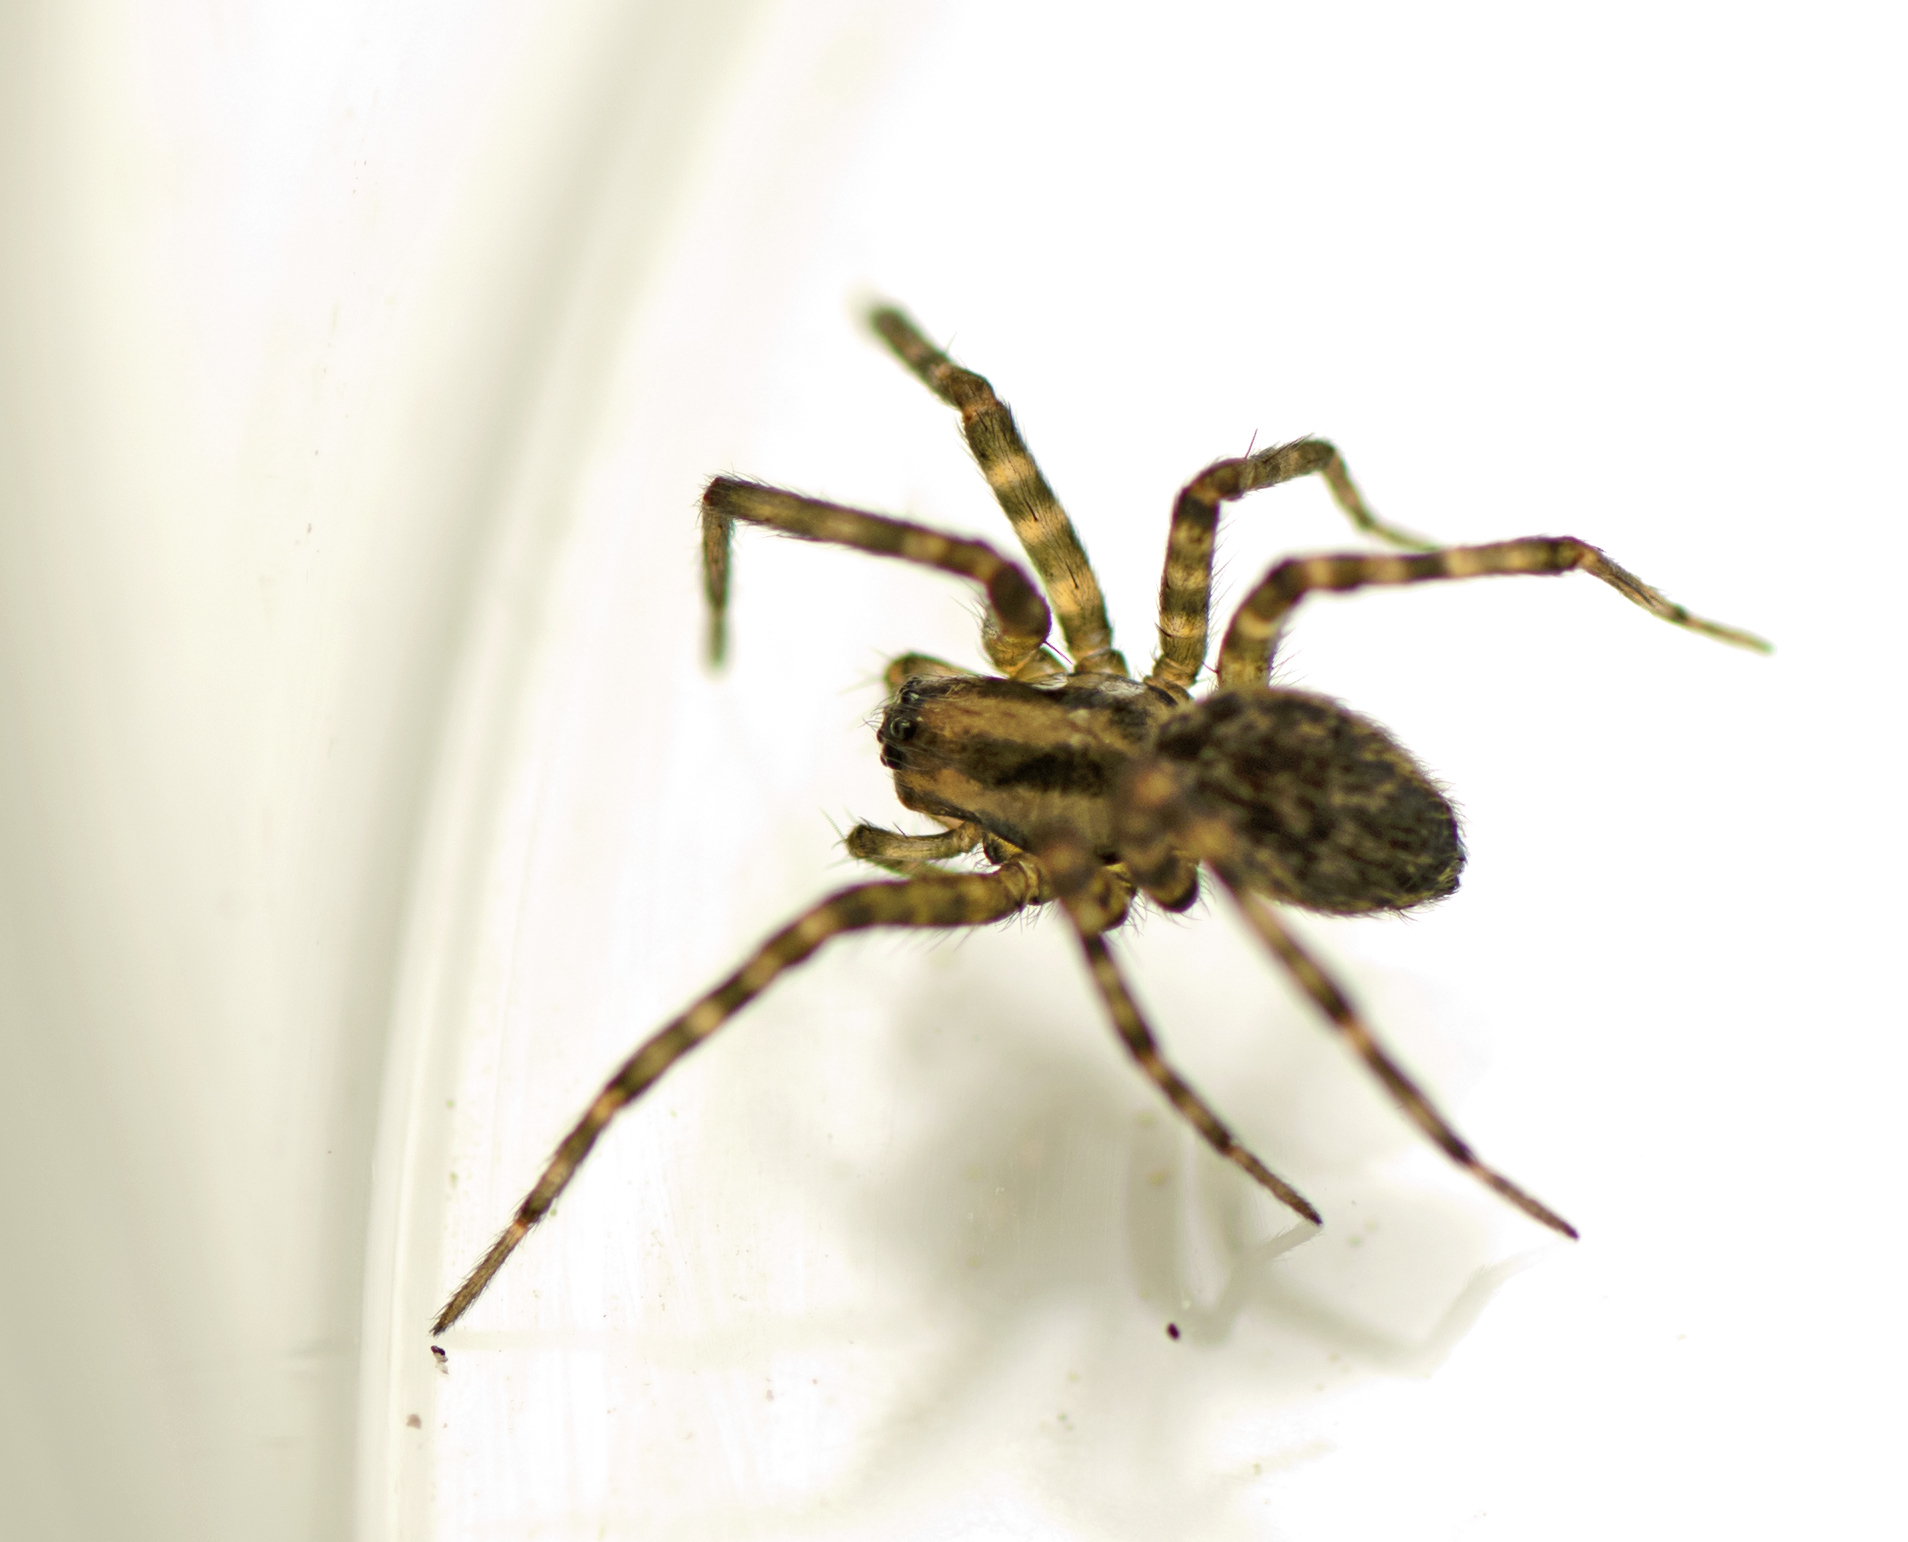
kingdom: Animalia
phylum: Arthropoda
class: Arachnida
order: Araneae
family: Stiphidiidae
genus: Couranga
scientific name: Couranga diehappy
